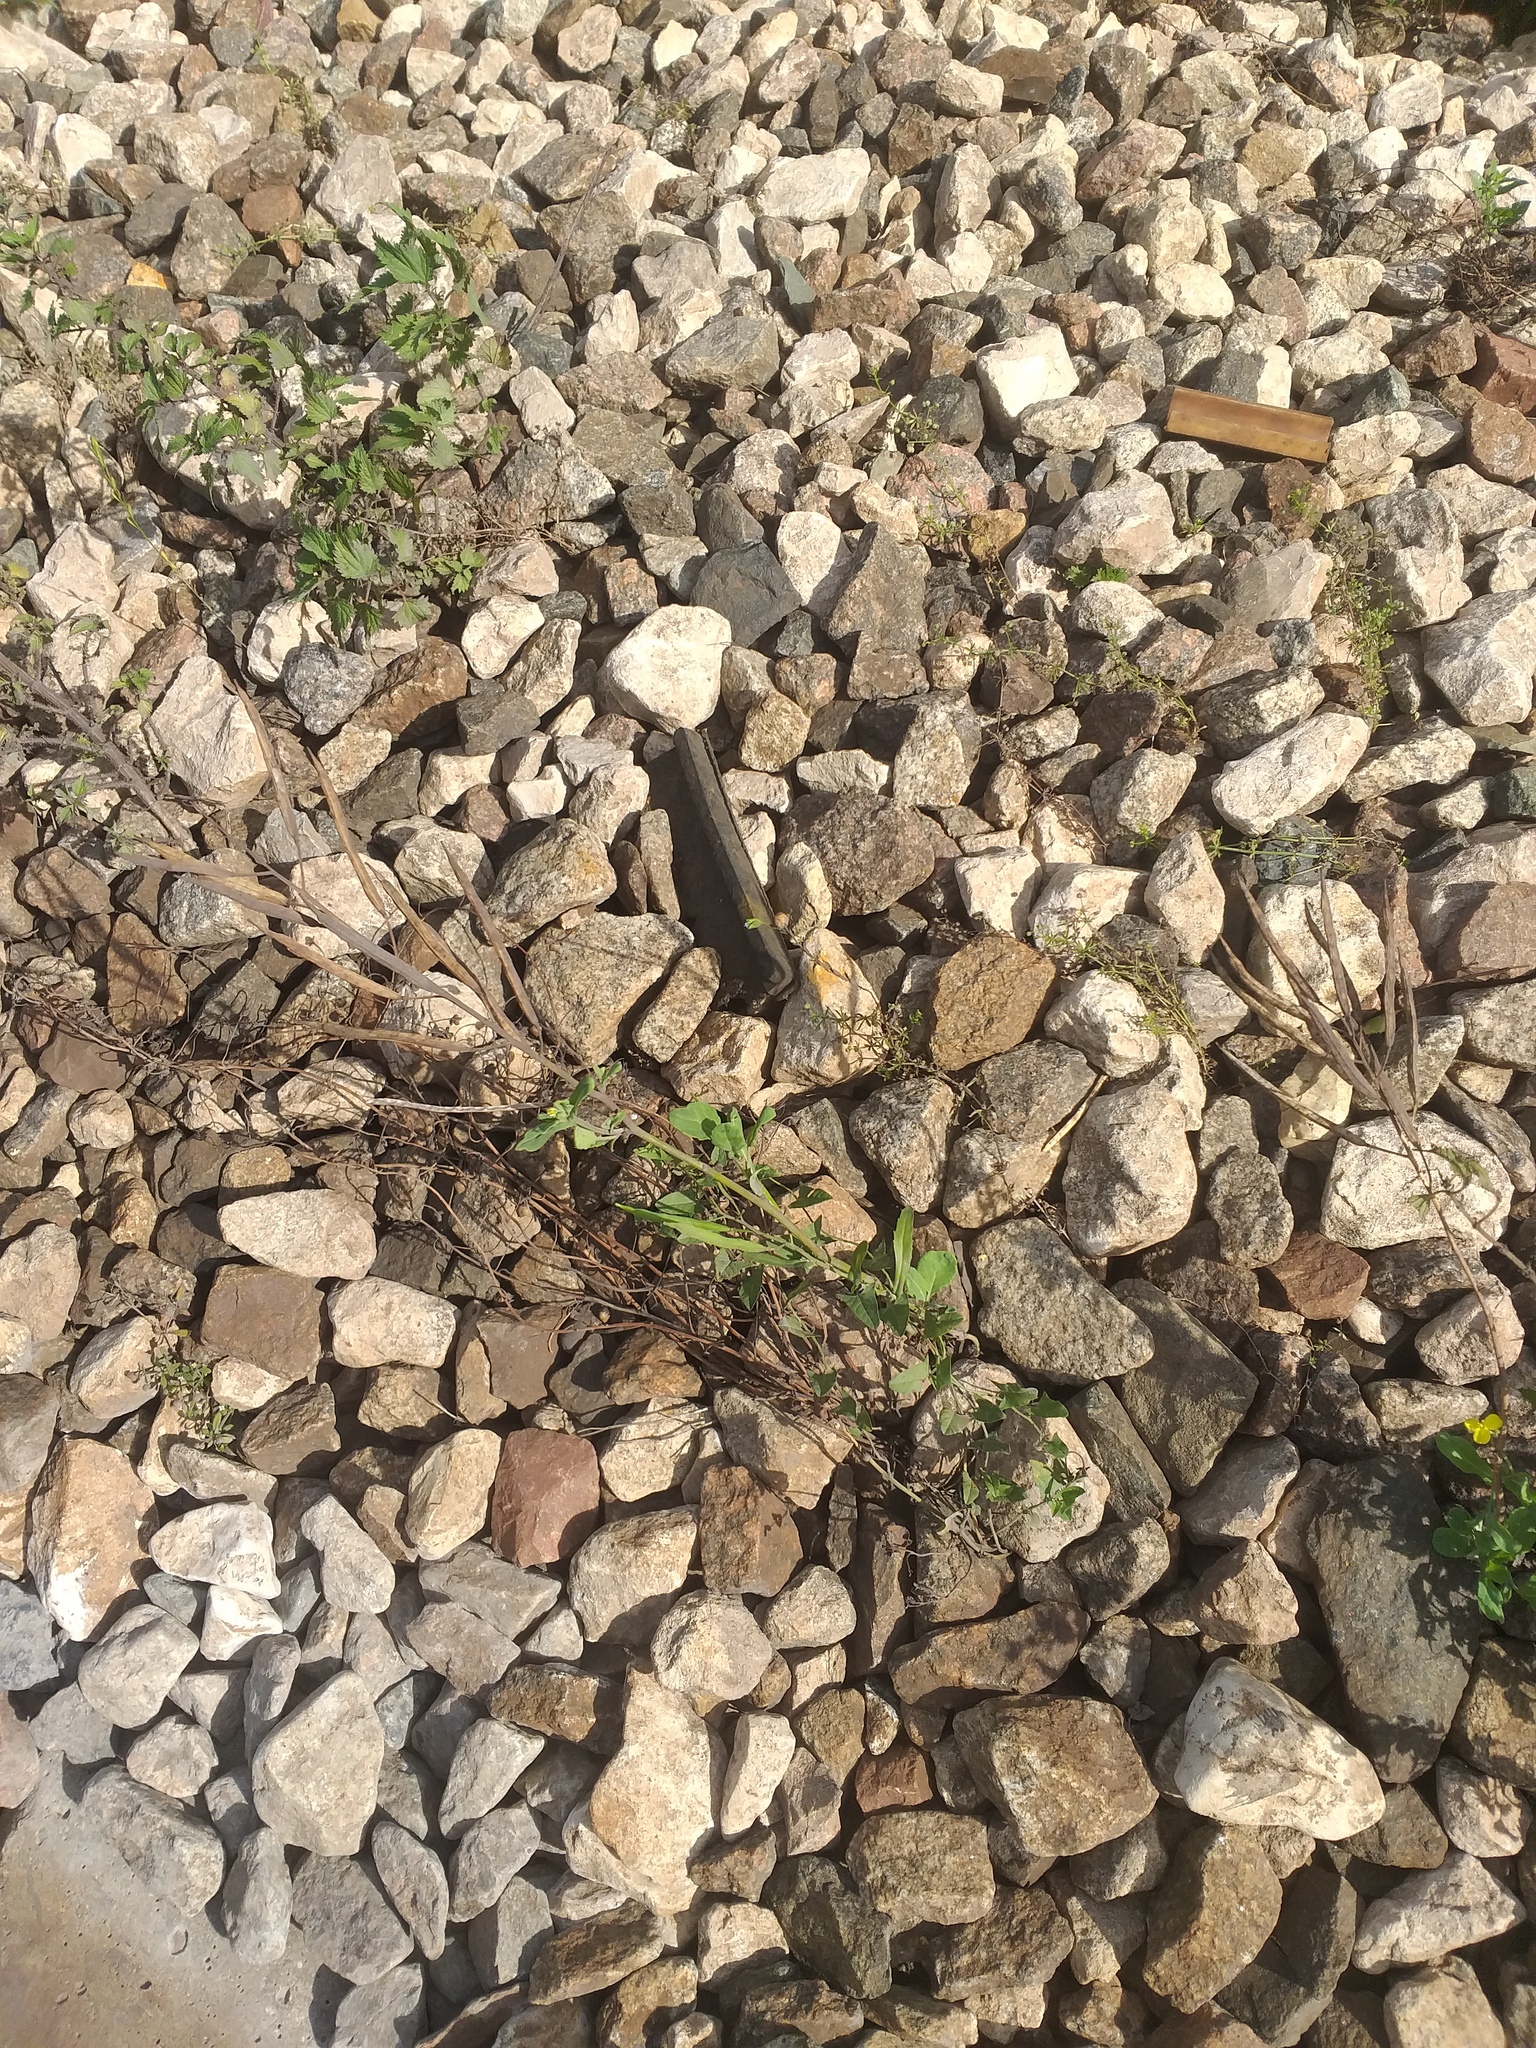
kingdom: Plantae
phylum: Tracheophyta
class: Magnoliopsida
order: Brassicales
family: Brassicaceae
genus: Brassica
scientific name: Brassica napus
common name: Rape
